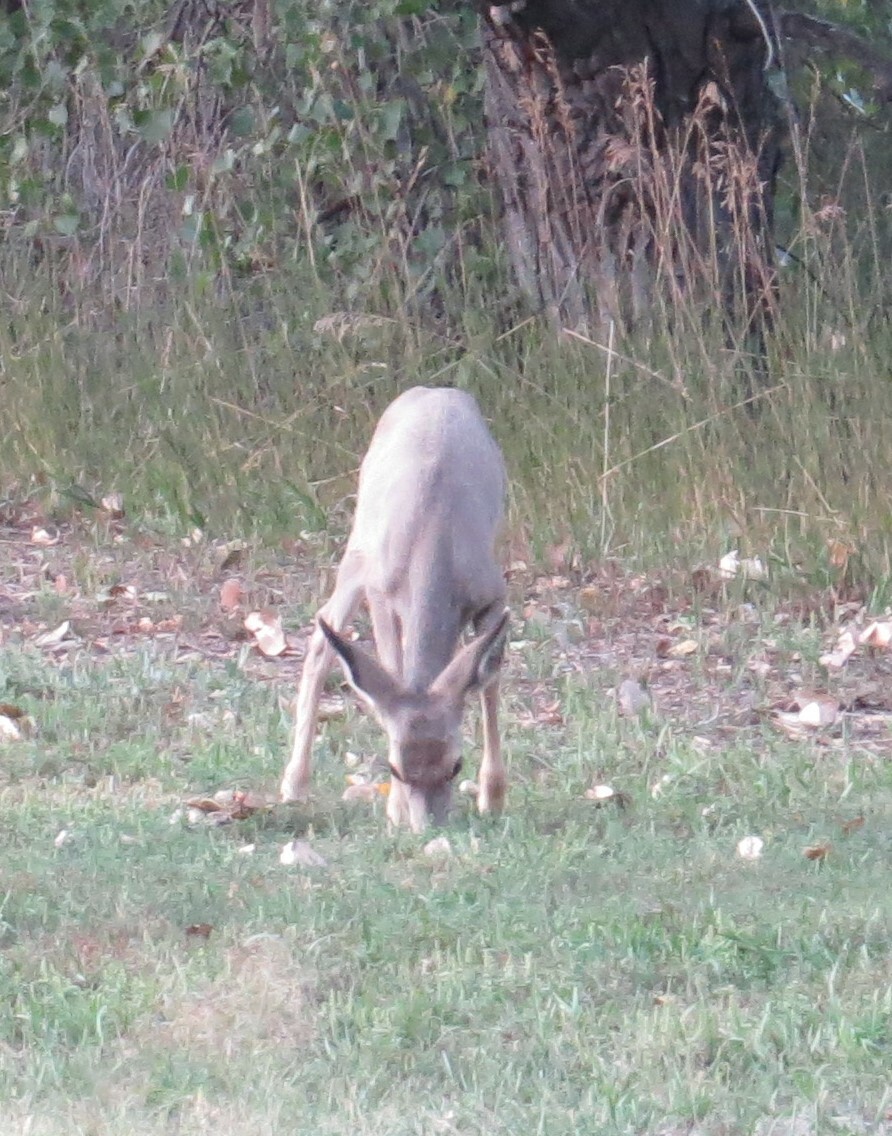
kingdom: Animalia
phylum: Chordata
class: Mammalia
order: Artiodactyla
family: Cervidae
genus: Odocoileus
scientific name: Odocoileus hemionus
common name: Mule deer
